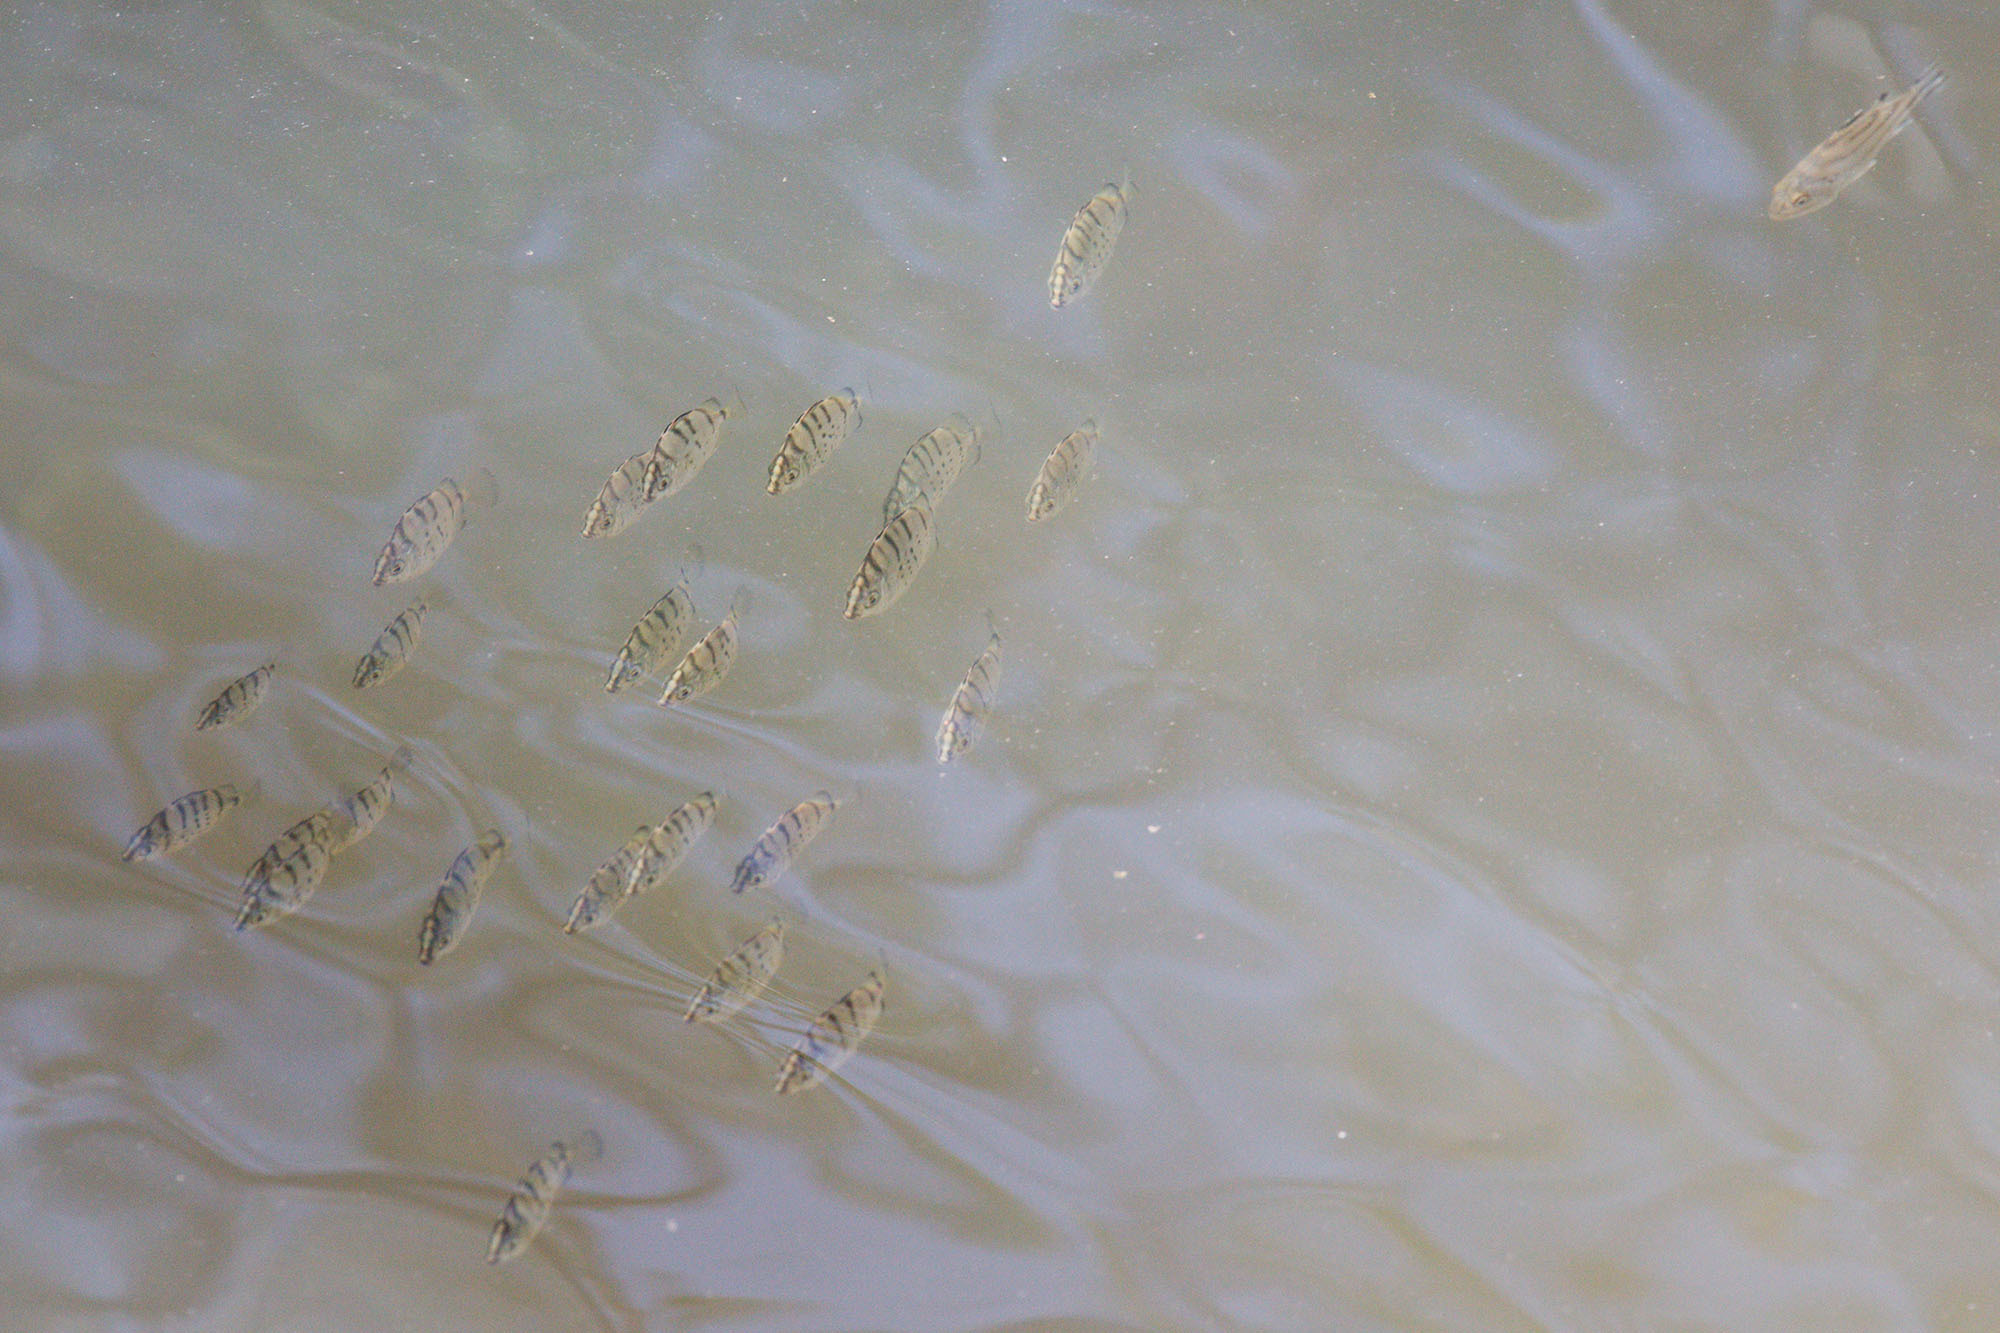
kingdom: Animalia
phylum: Chordata
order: Perciformes
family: Scatophagidae
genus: Selenotoca
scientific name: Selenotoca multifasciata
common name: Striped scat
